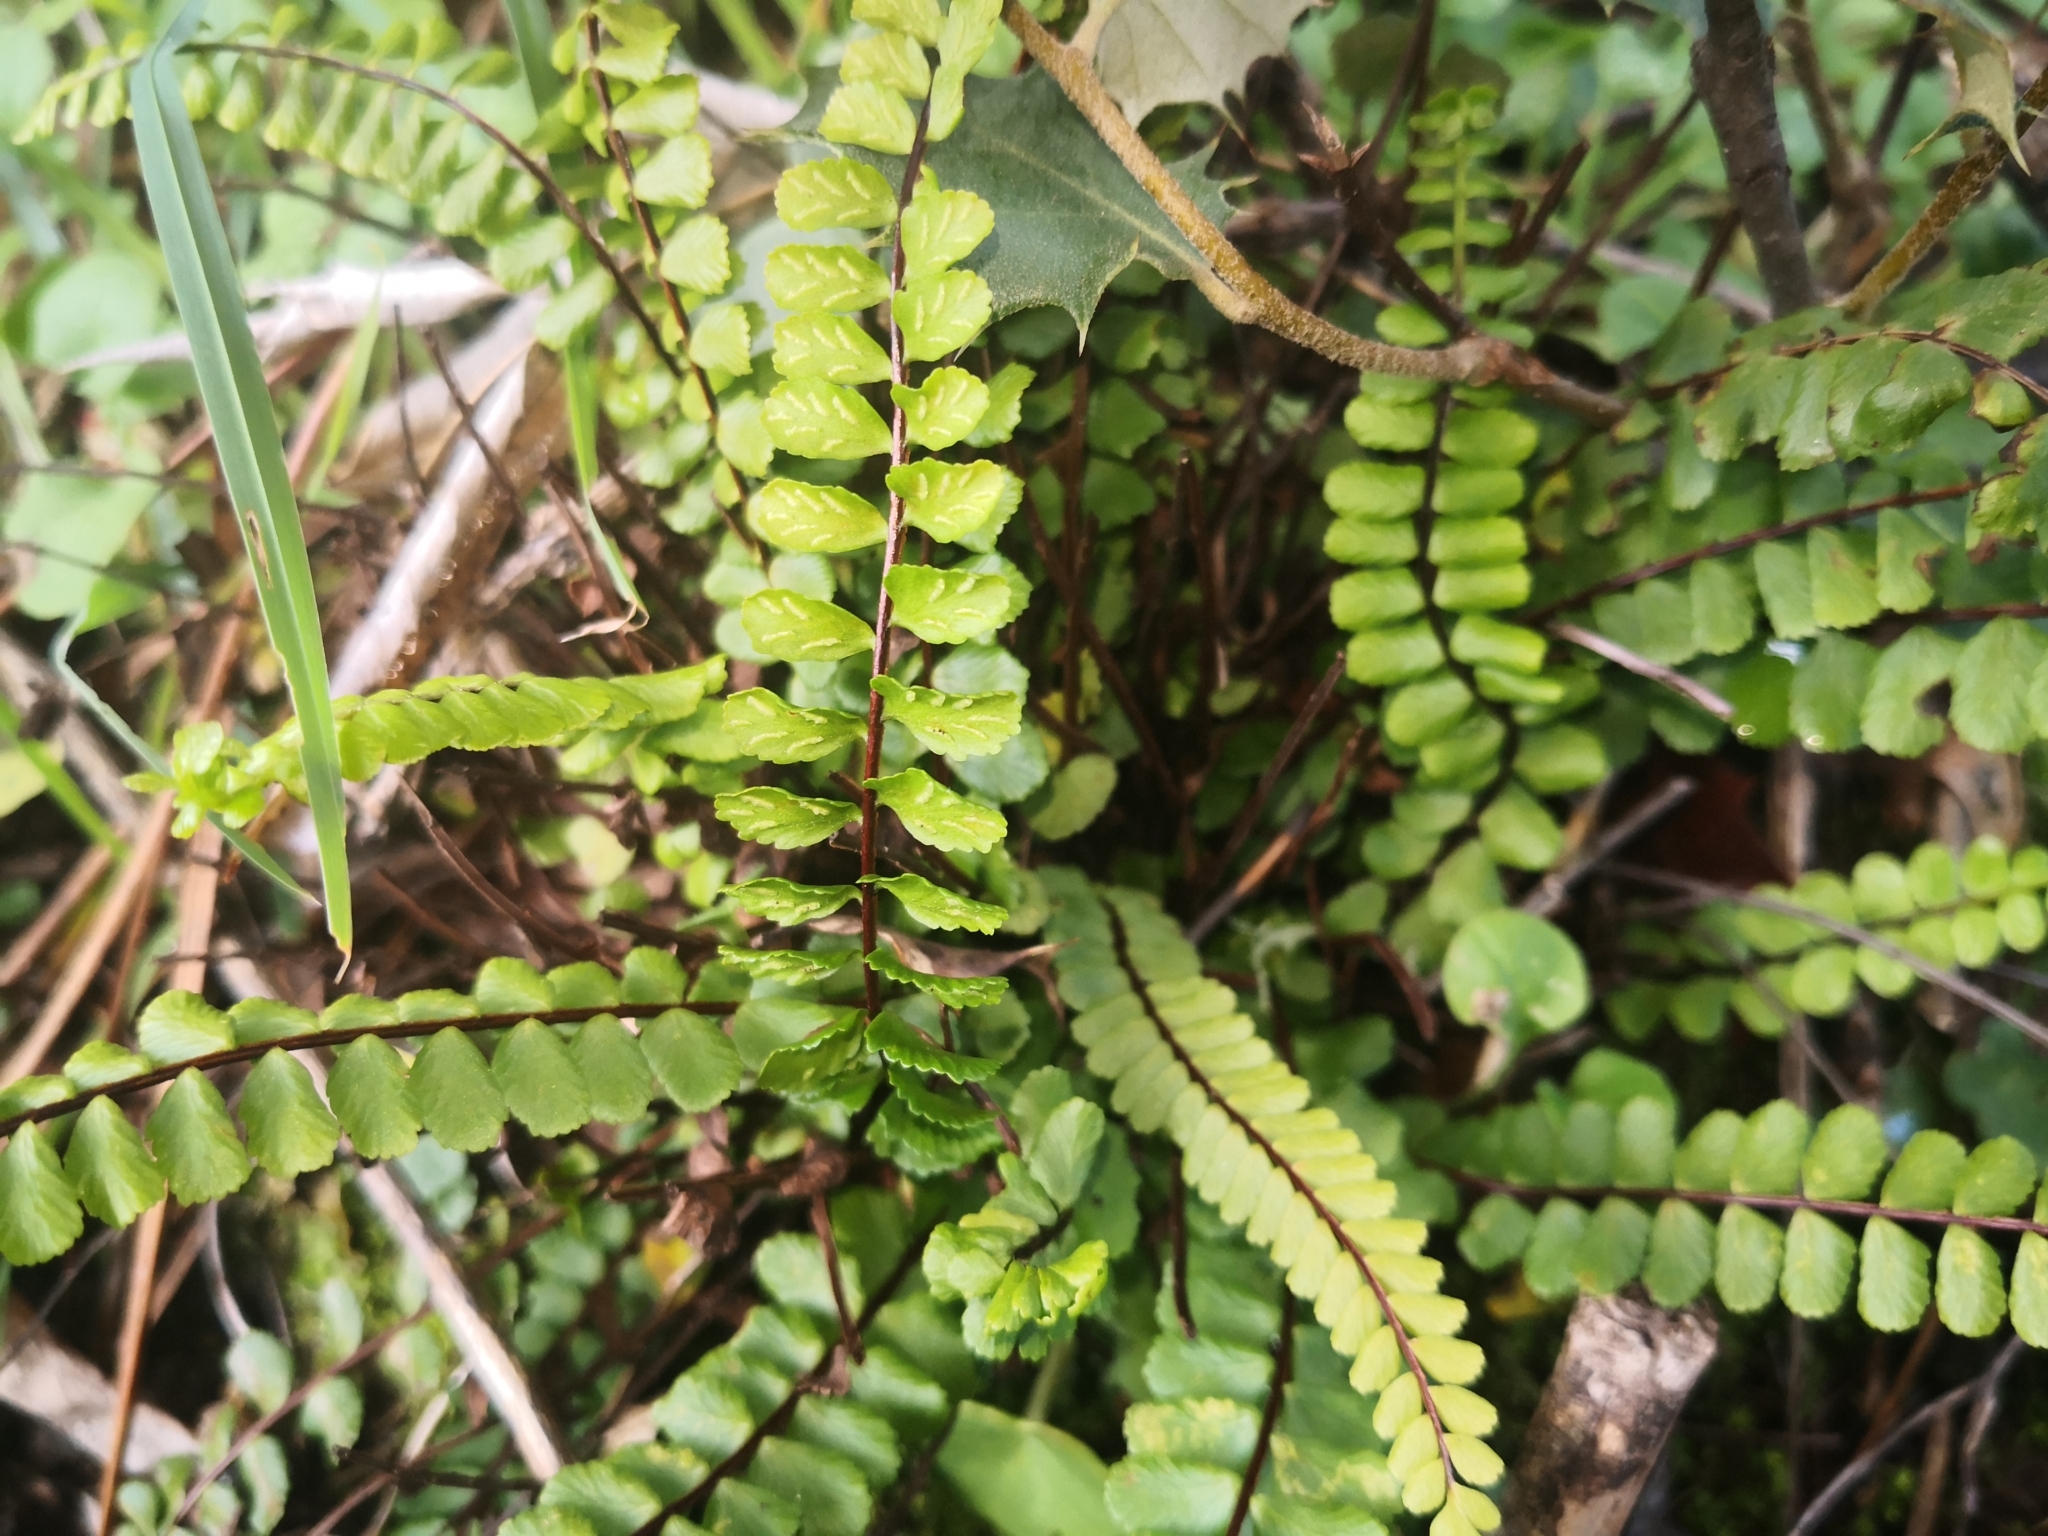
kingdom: Plantae
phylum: Tracheophyta
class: Polypodiopsida
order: Polypodiales
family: Aspleniaceae
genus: Asplenium
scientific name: Asplenium trichomanes
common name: Maidenhair spleenwort
